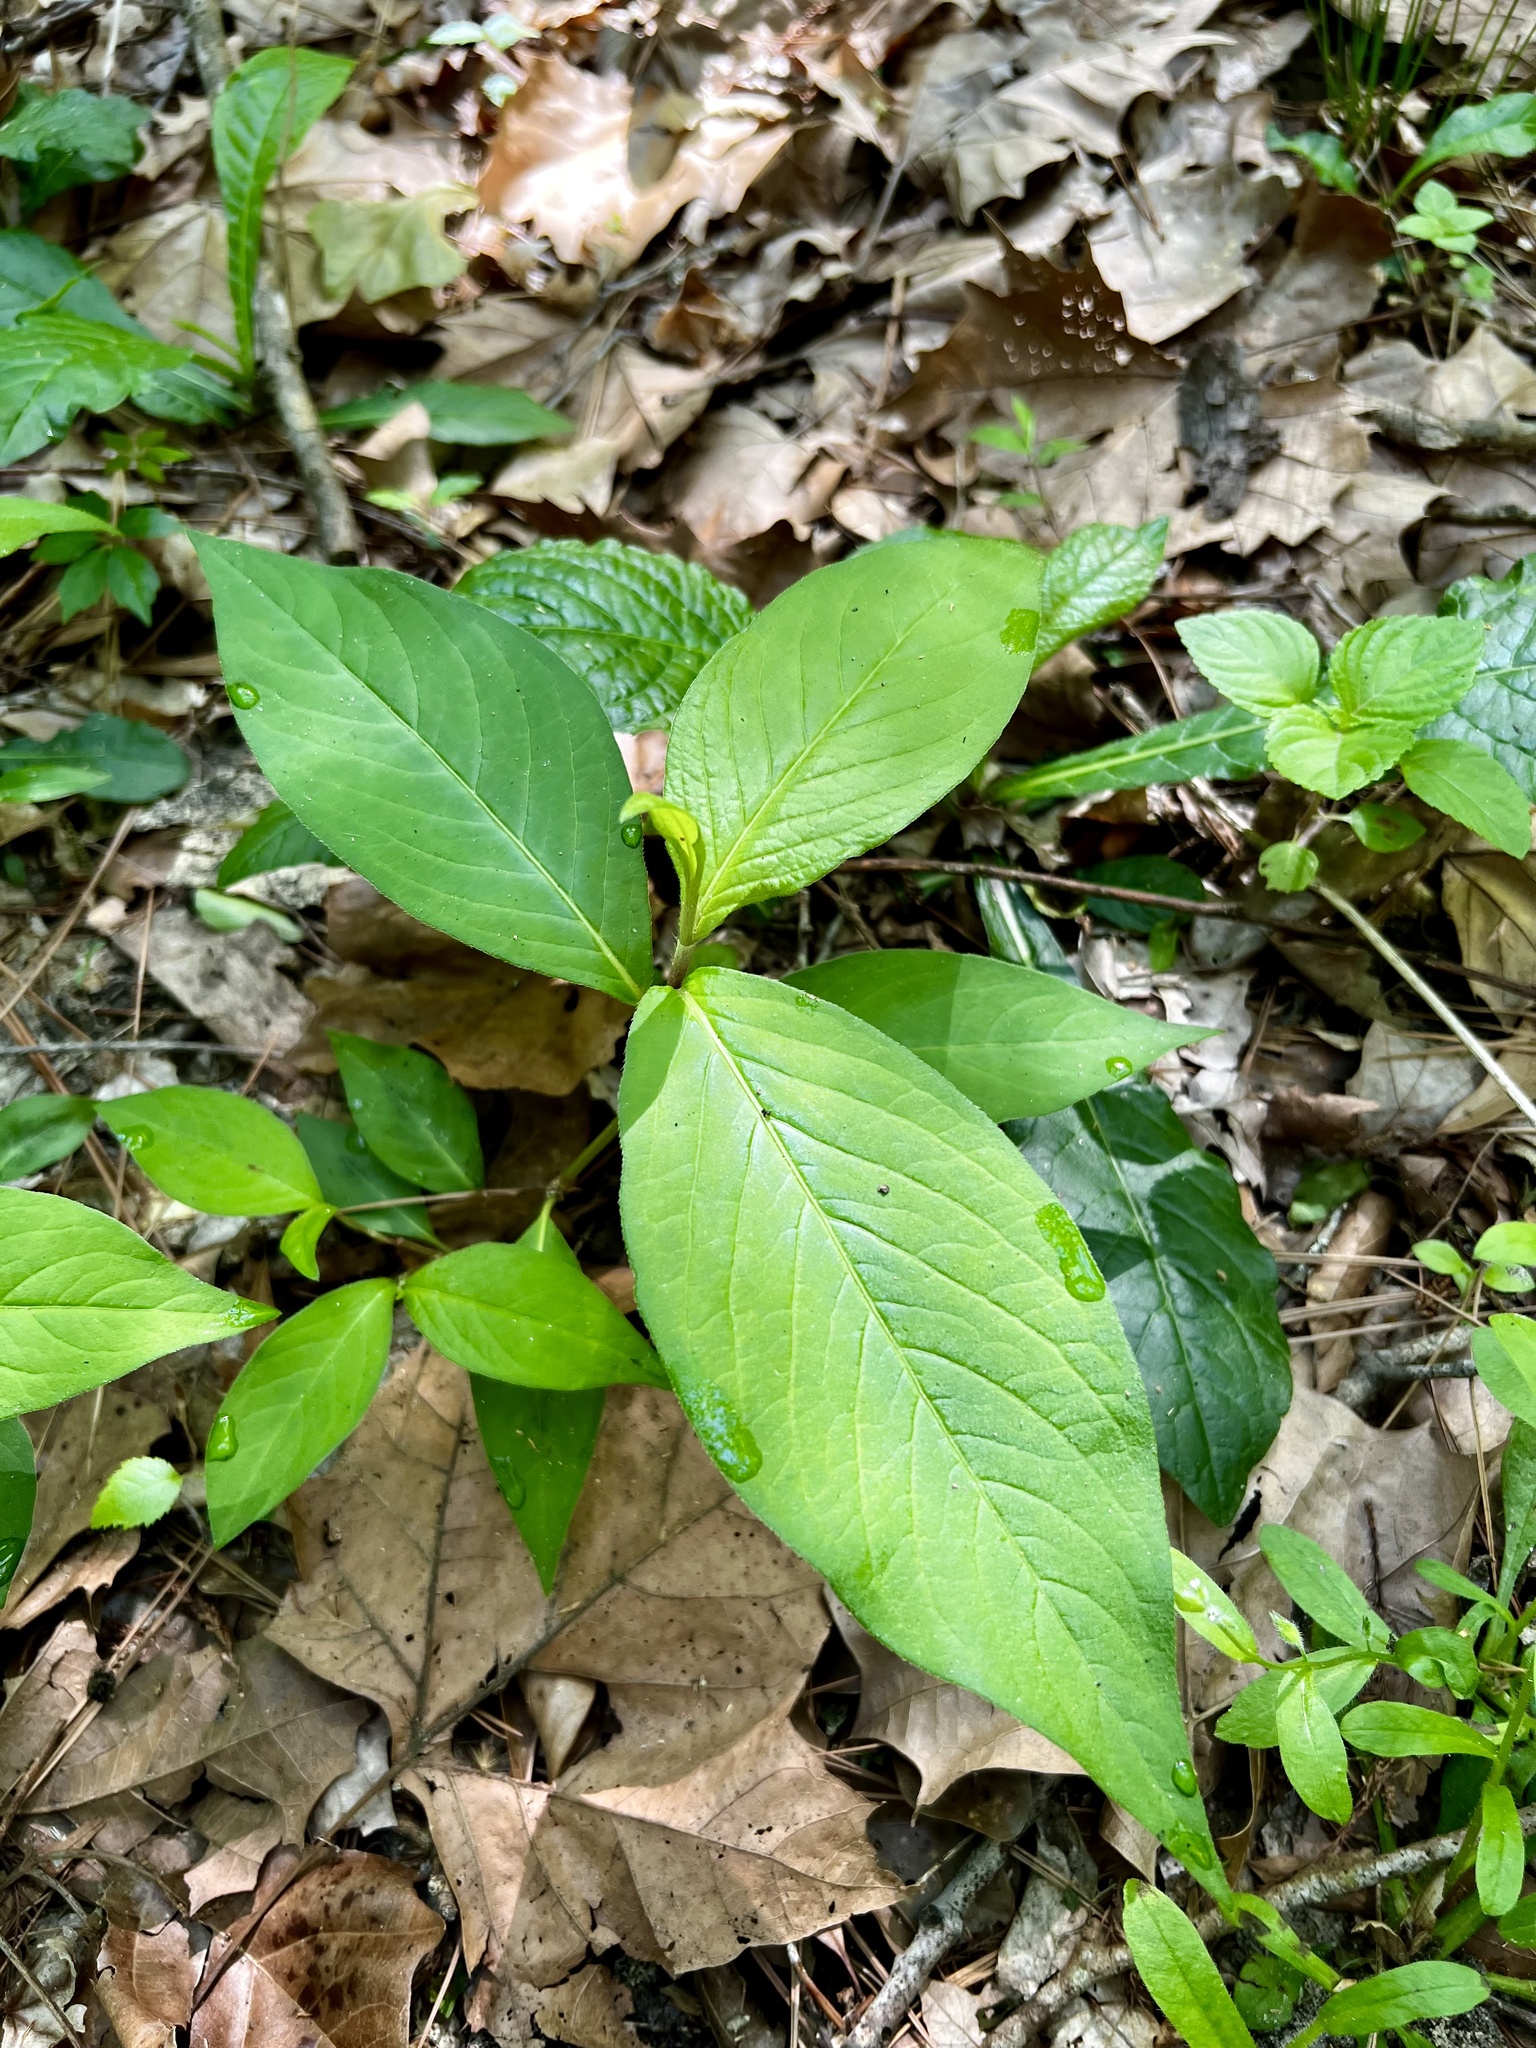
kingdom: Plantae
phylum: Tracheophyta
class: Magnoliopsida
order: Caryophyllales
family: Polygonaceae
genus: Persicaria
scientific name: Persicaria virginiana
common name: Jumpseed
